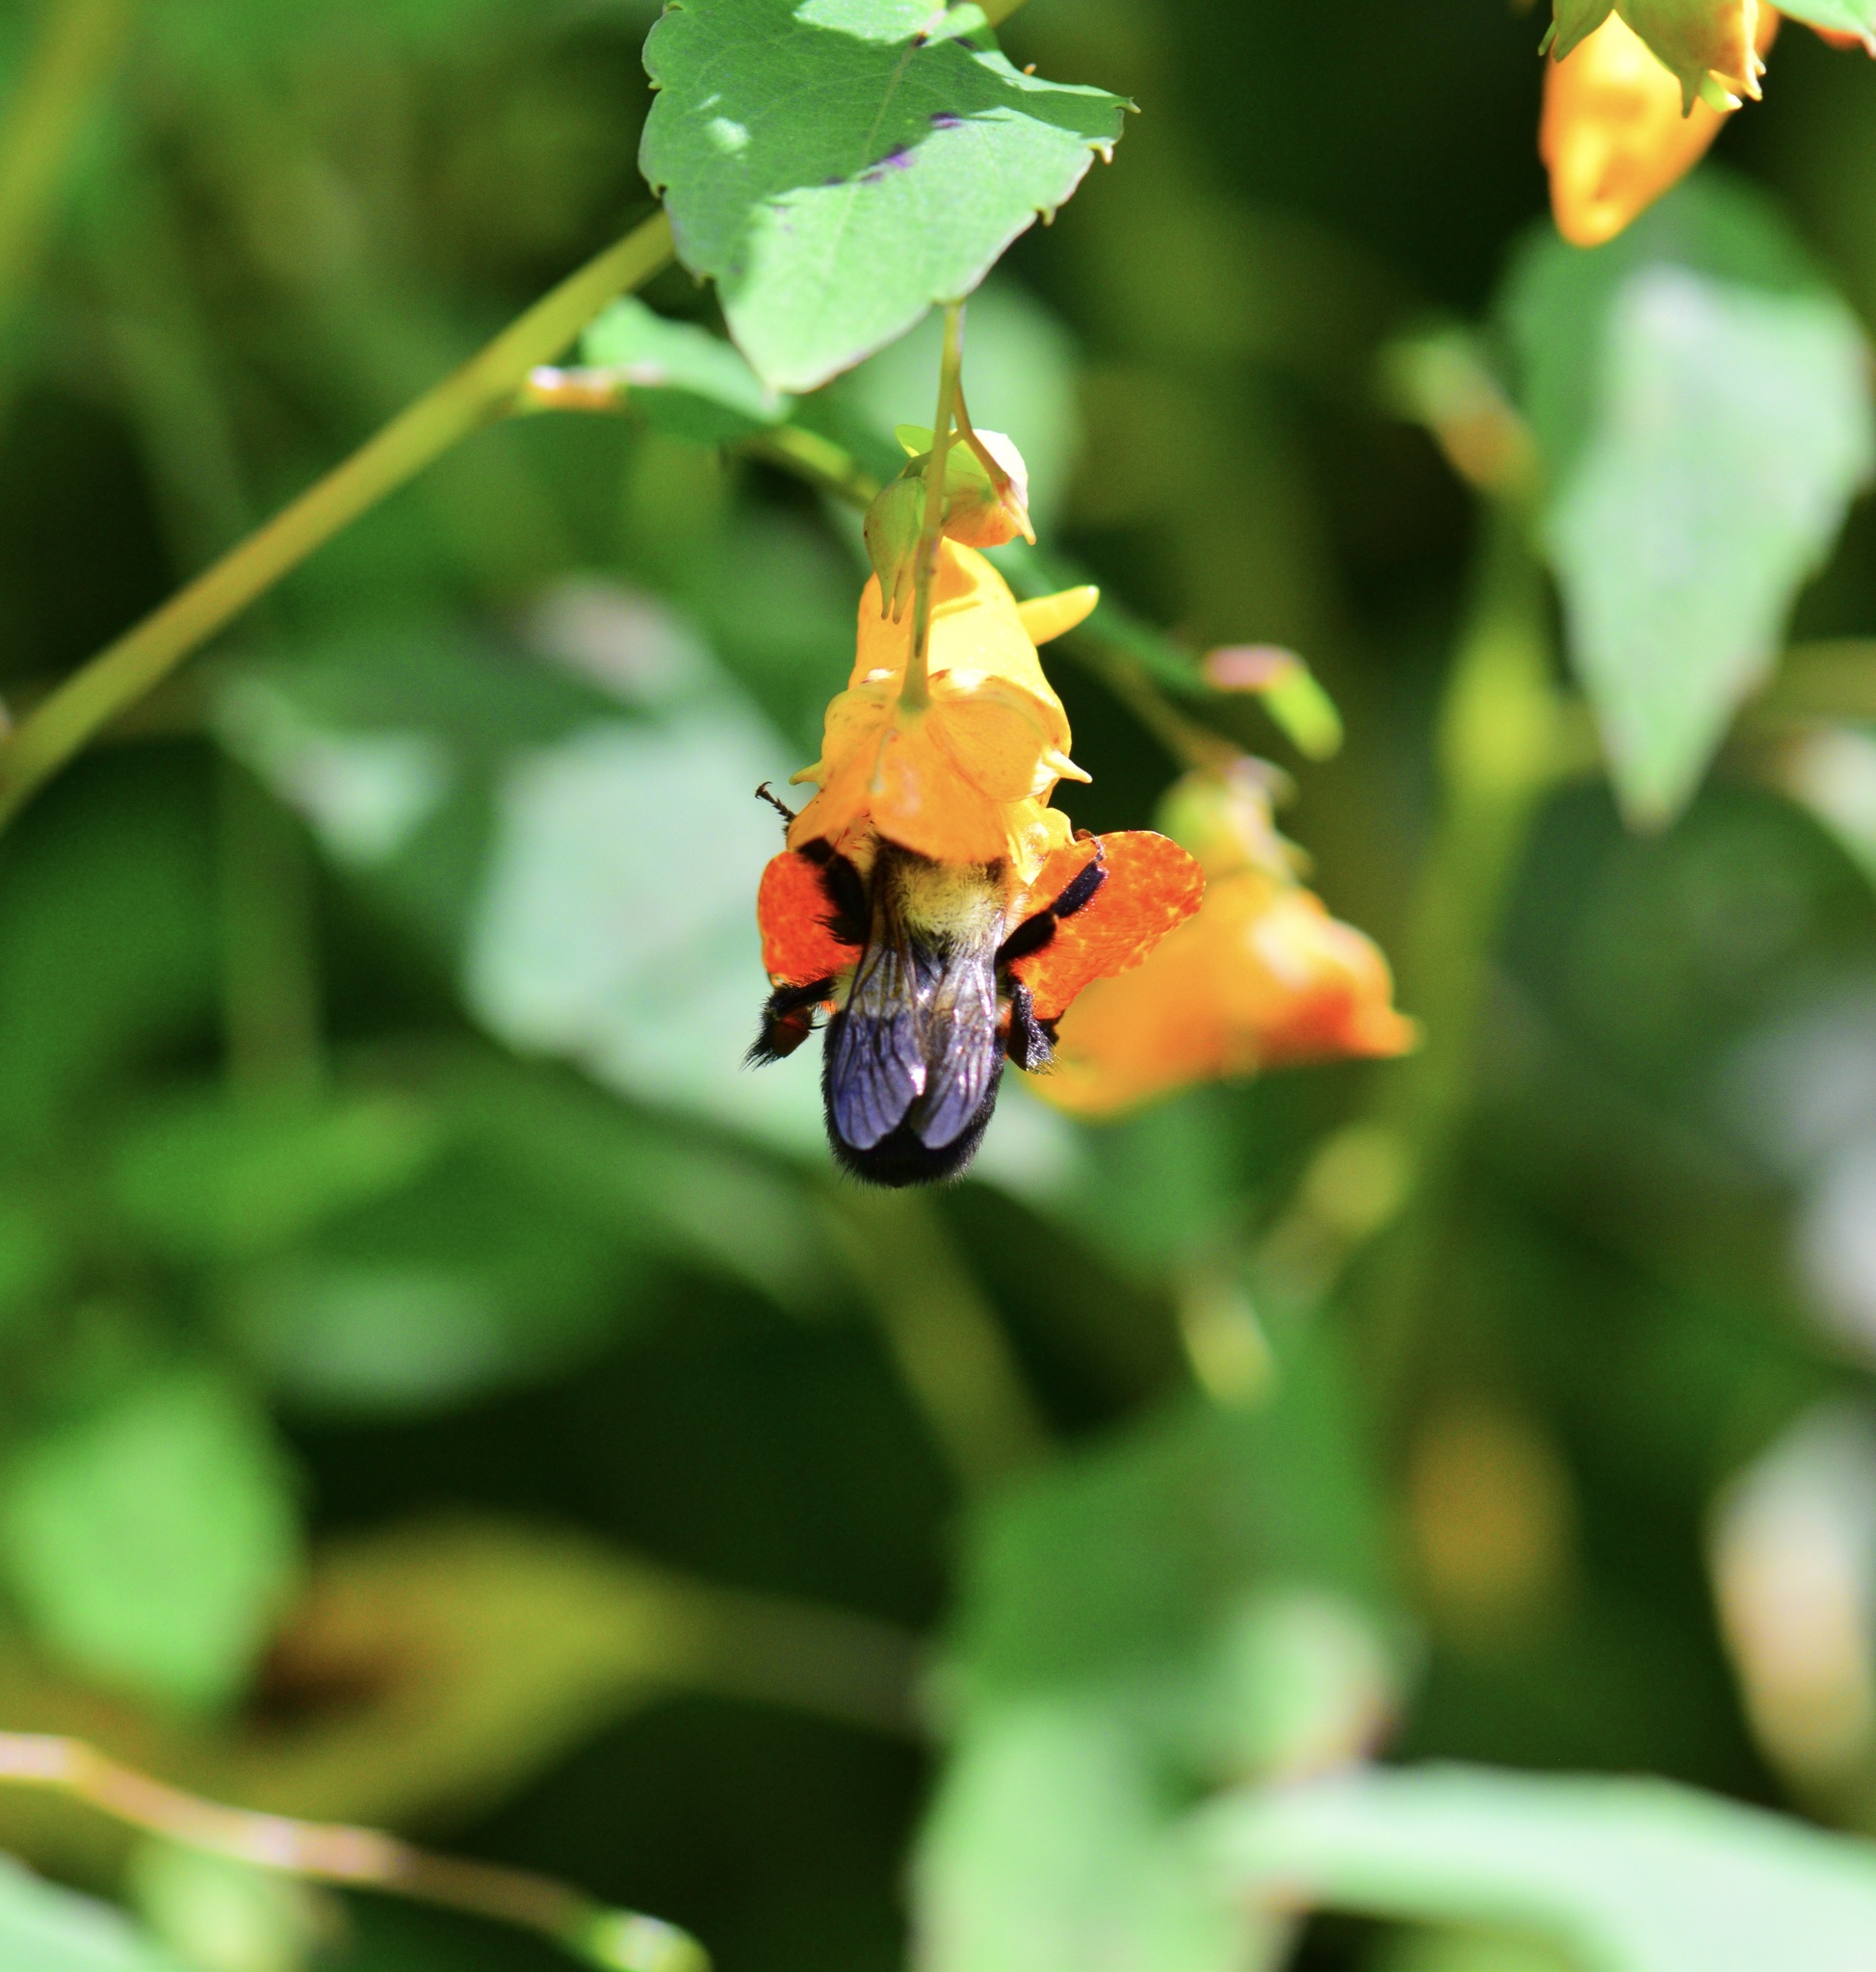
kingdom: Animalia
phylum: Arthropoda
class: Insecta
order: Hymenoptera
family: Apidae
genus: Bombus
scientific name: Bombus impatiens
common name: Common eastern bumble bee
